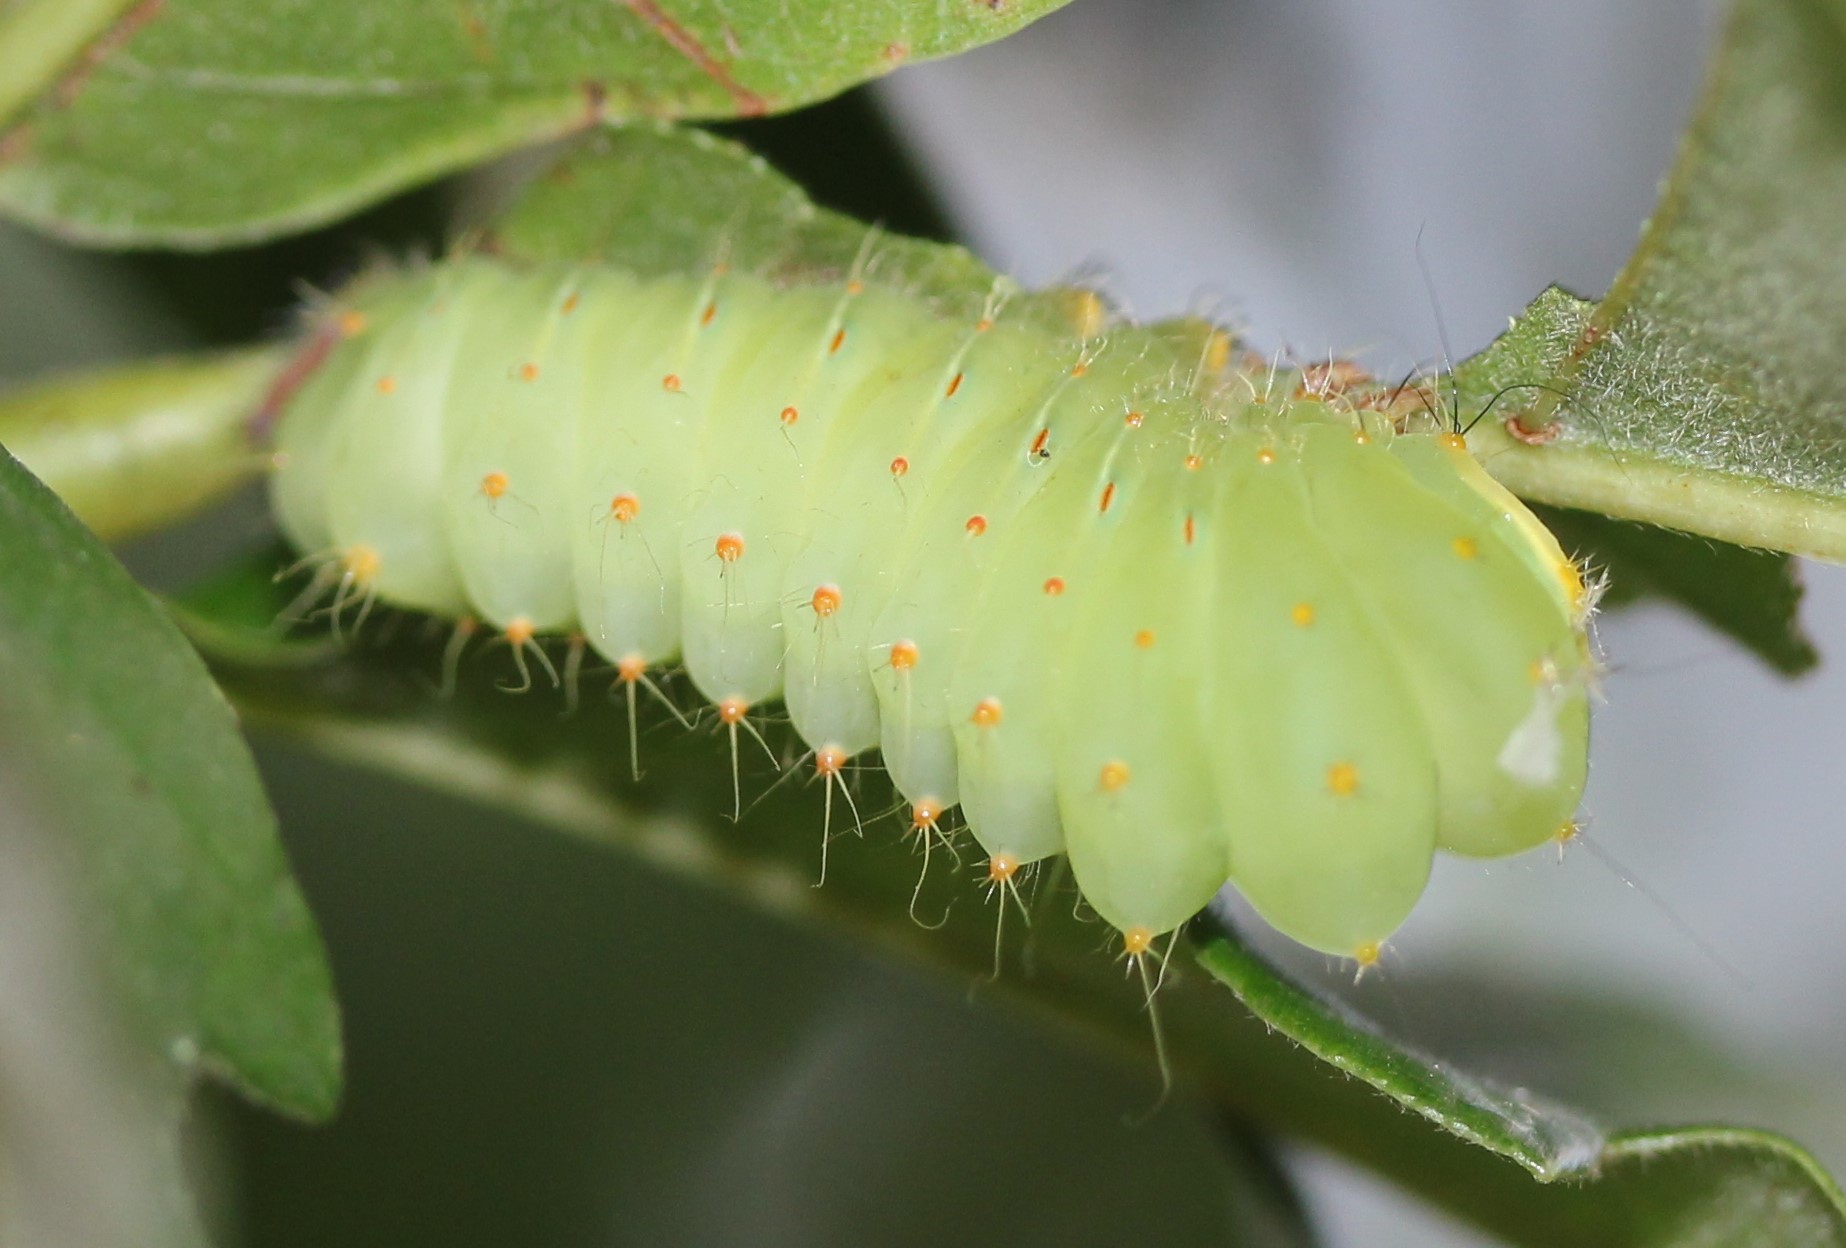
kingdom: Animalia
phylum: Arthropoda
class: Insecta
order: Lepidoptera
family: Saturniidae
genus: Antheraea
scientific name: Antheraea polyphemus
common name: Polyphemus moth
